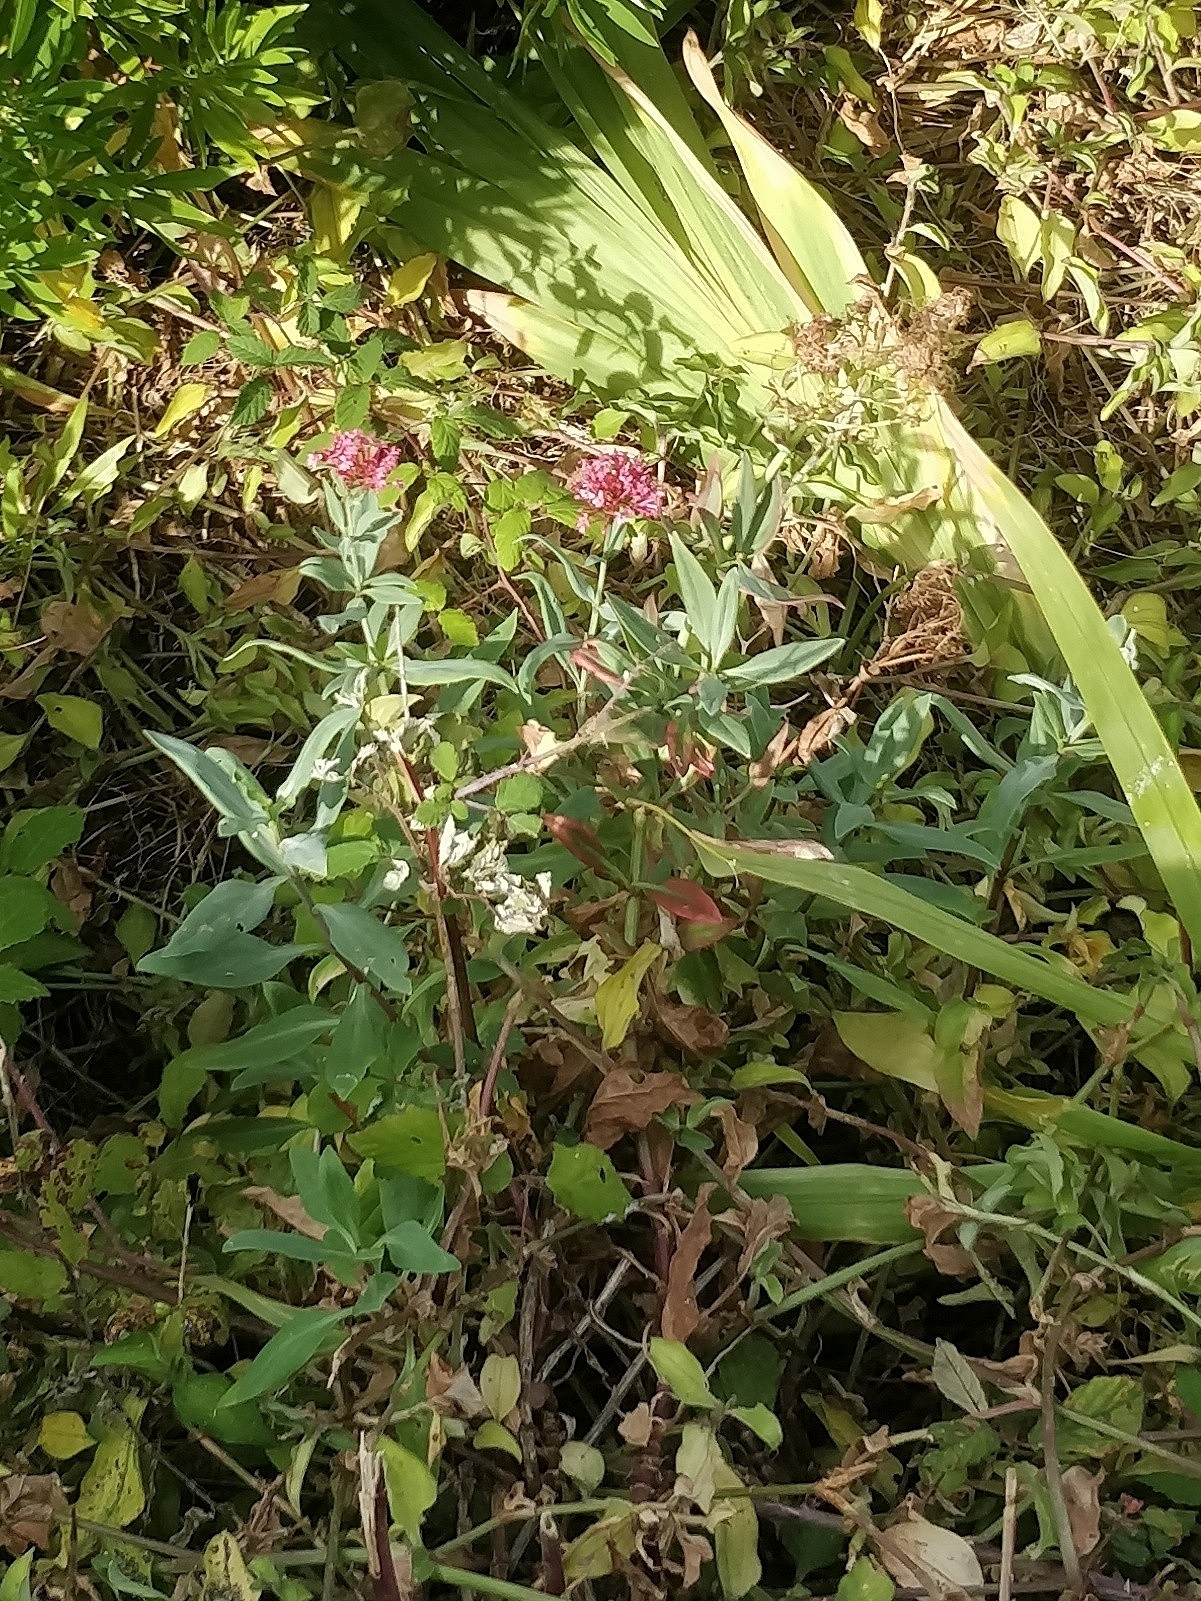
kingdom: Plantae
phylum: Tracheophyta
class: Magnoliopsida
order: Dipsacales
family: Caprifoliaceae
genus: Centranthus
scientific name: Centranthus ruber
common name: Red valerian
